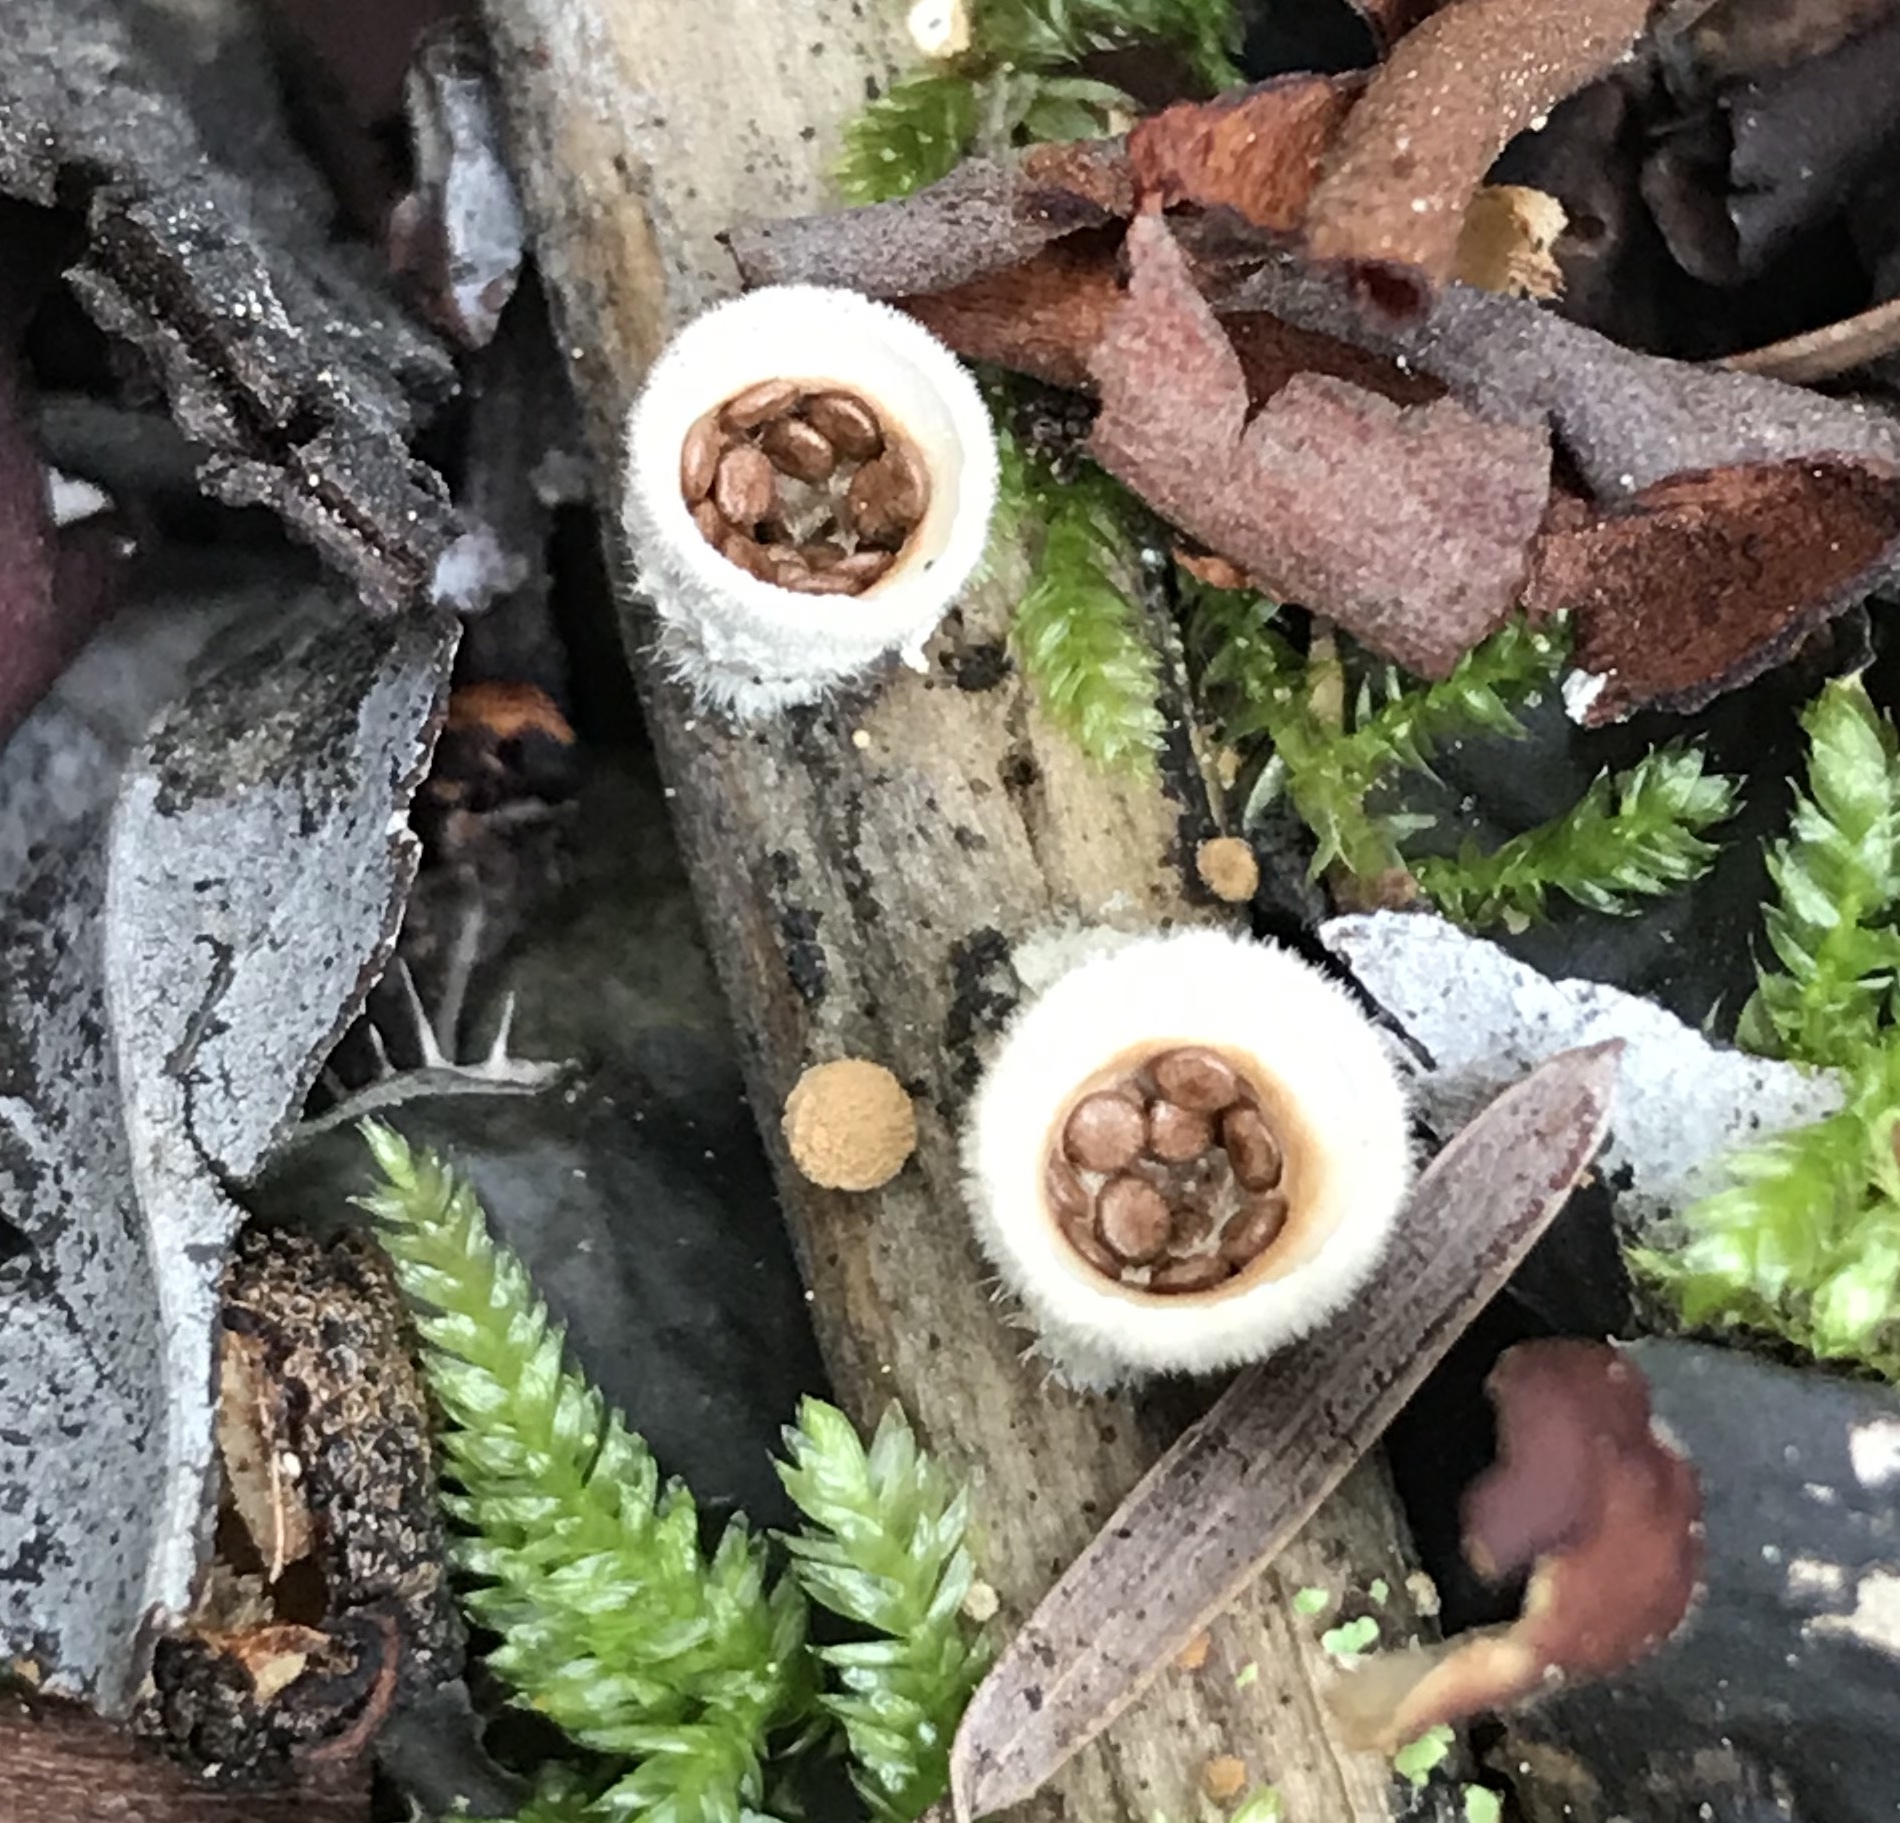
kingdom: Fungi
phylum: Basidiomycota
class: Agaricomycetes
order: Agaricales
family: Agaricaceae
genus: Nidula
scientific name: Nidula niveotomentosa
